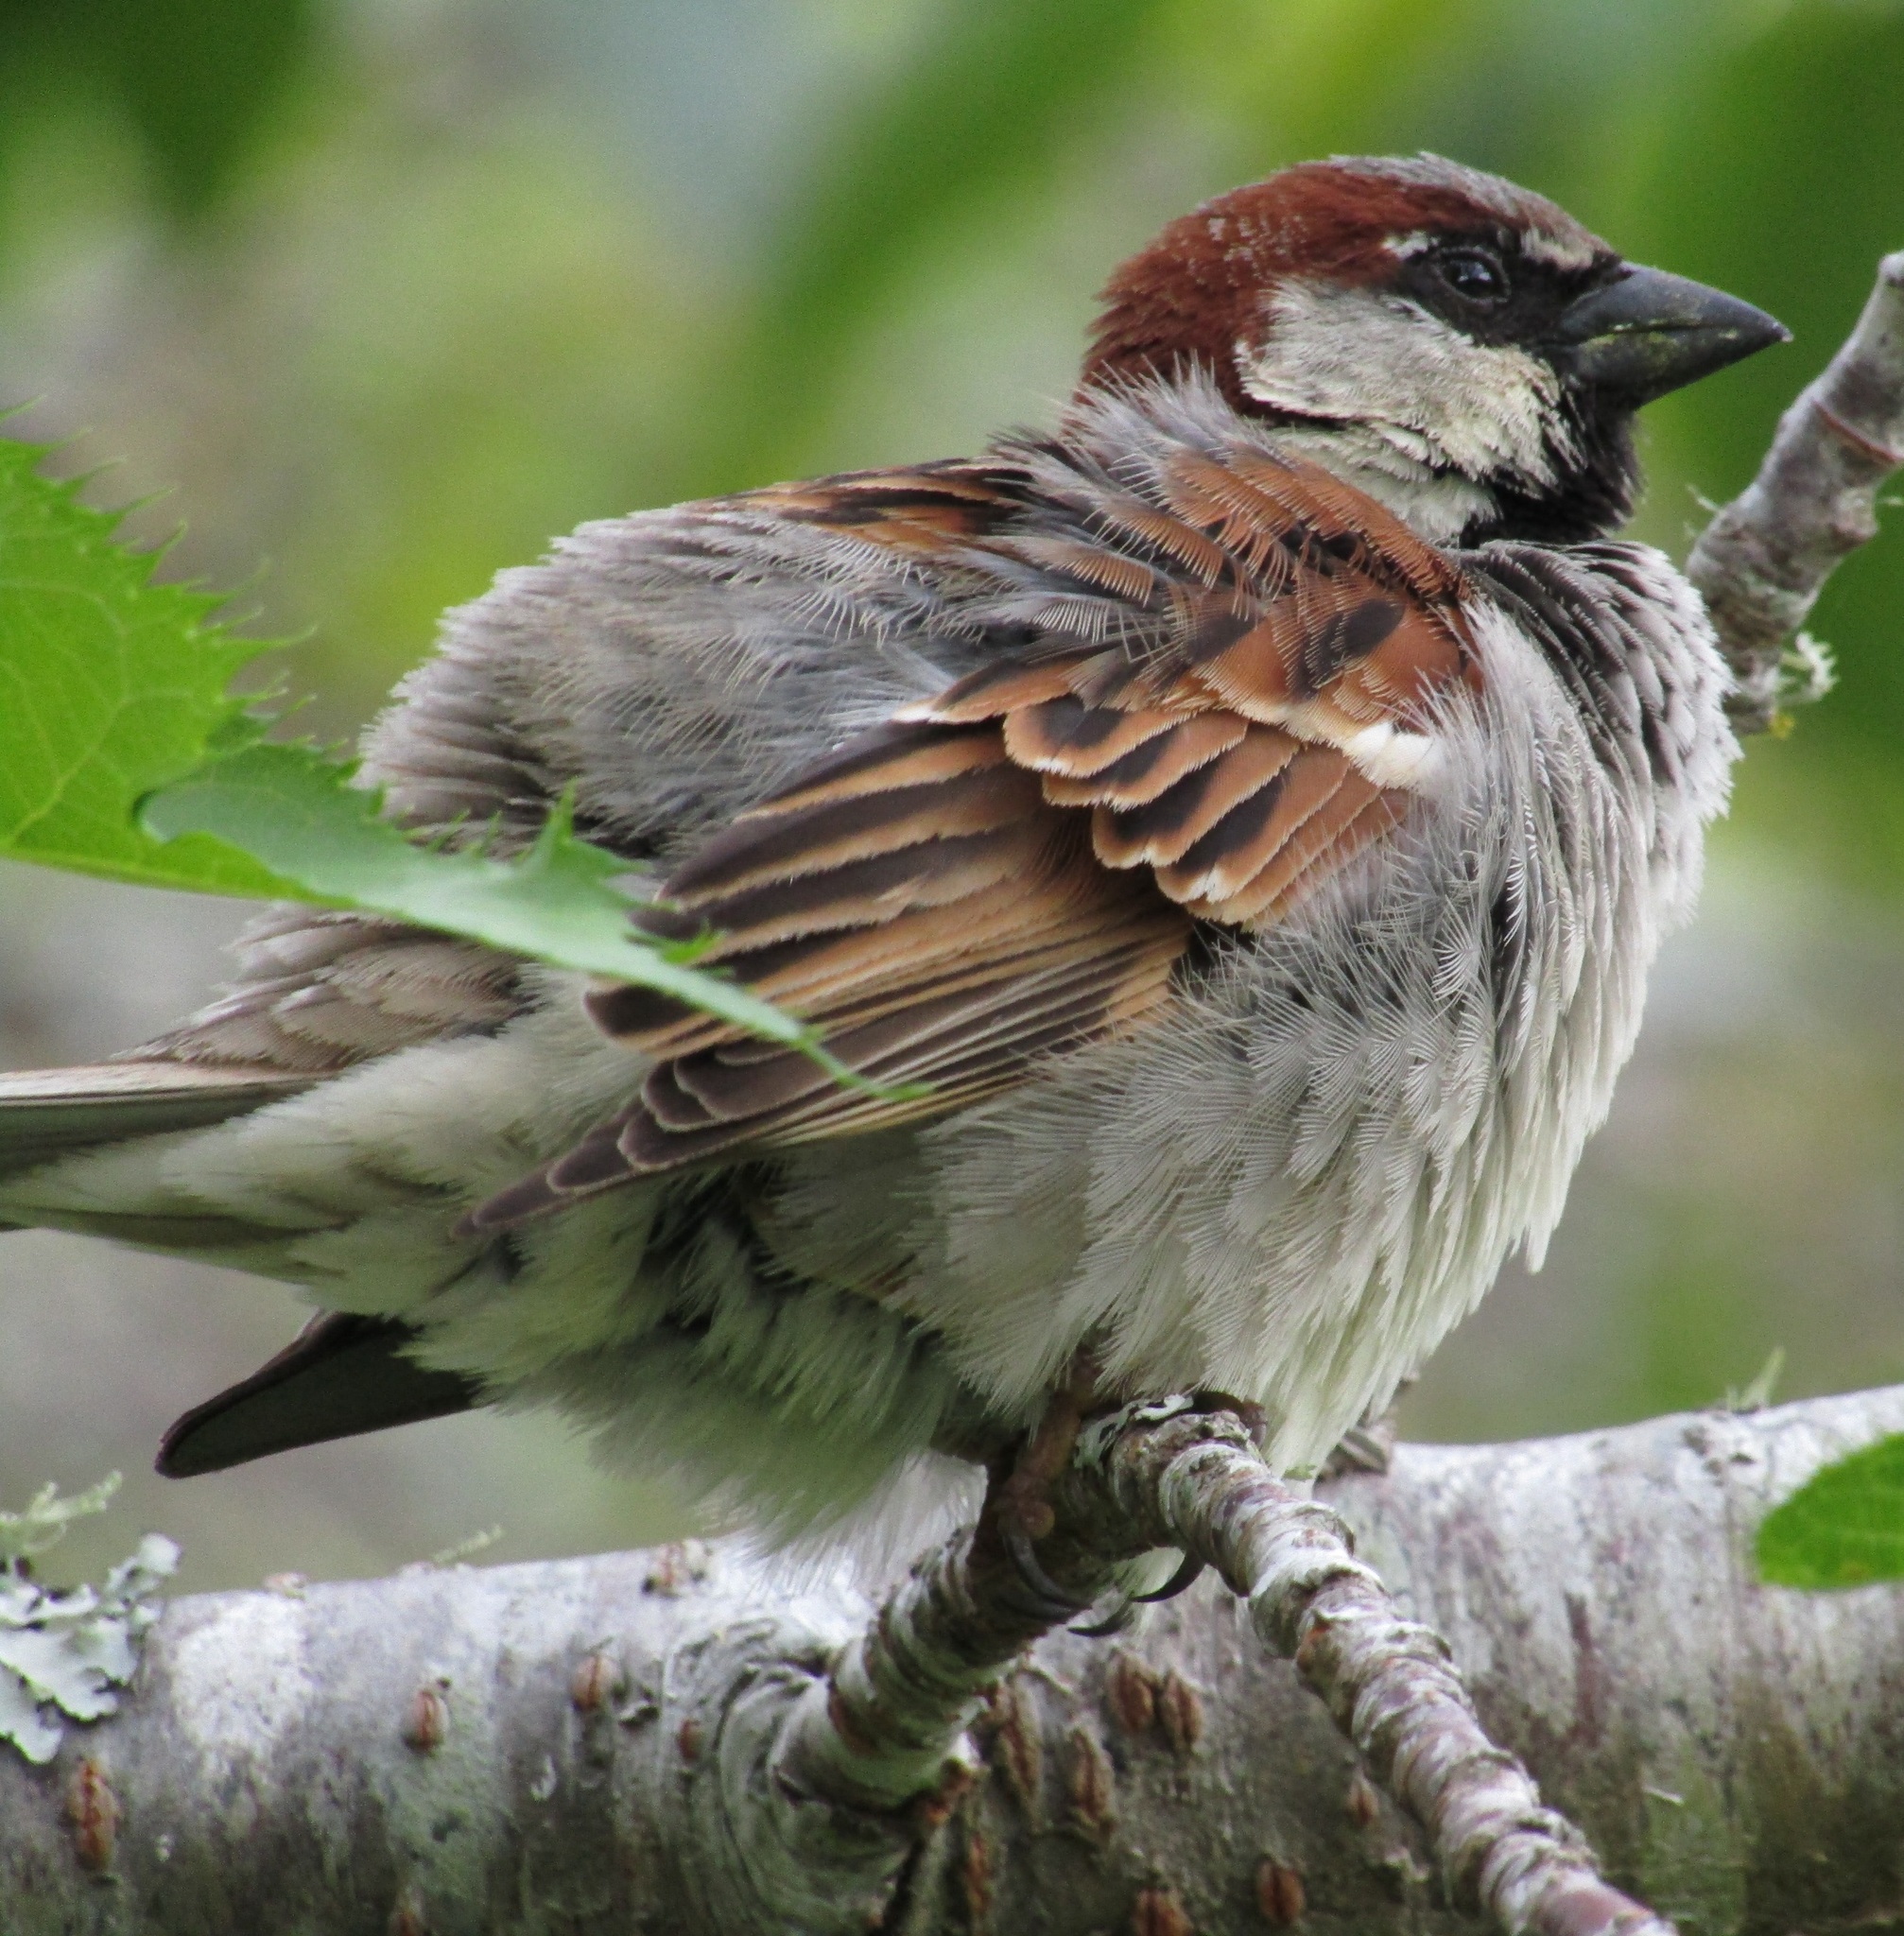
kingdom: Animalia
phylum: Chordata
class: Aves
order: Passeriformes
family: Passeridae
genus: Passer
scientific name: Passer domesticus
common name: House sparrow
